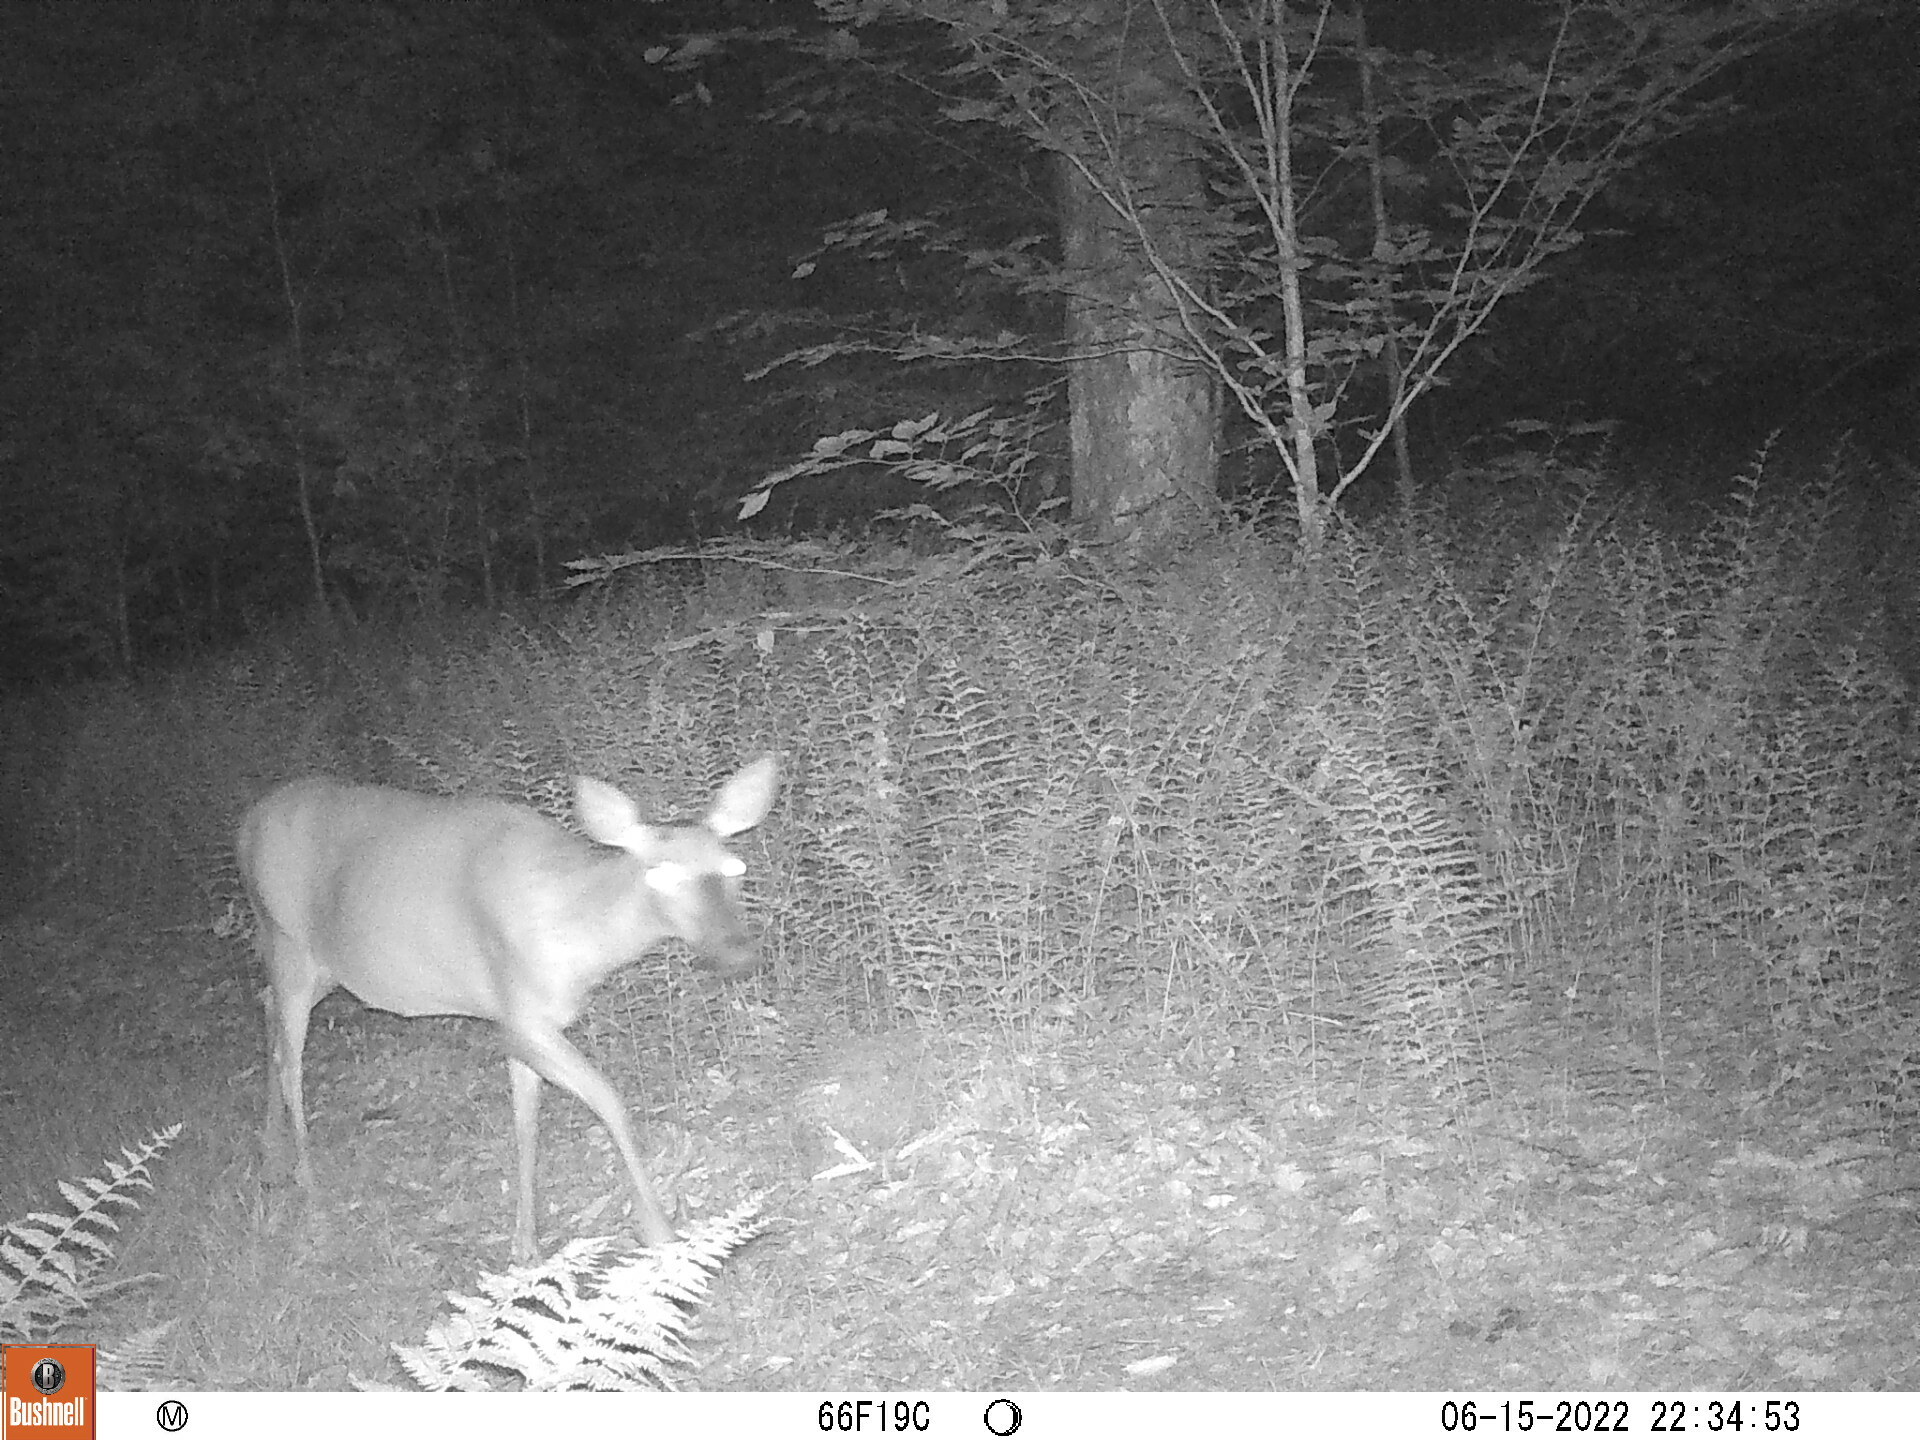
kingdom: Animalia
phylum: Chordata
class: Mammalia
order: Artiodactyla
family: Cervidae
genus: Odocoileus
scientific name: Odocoileus virginianus
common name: White-tailed deer
